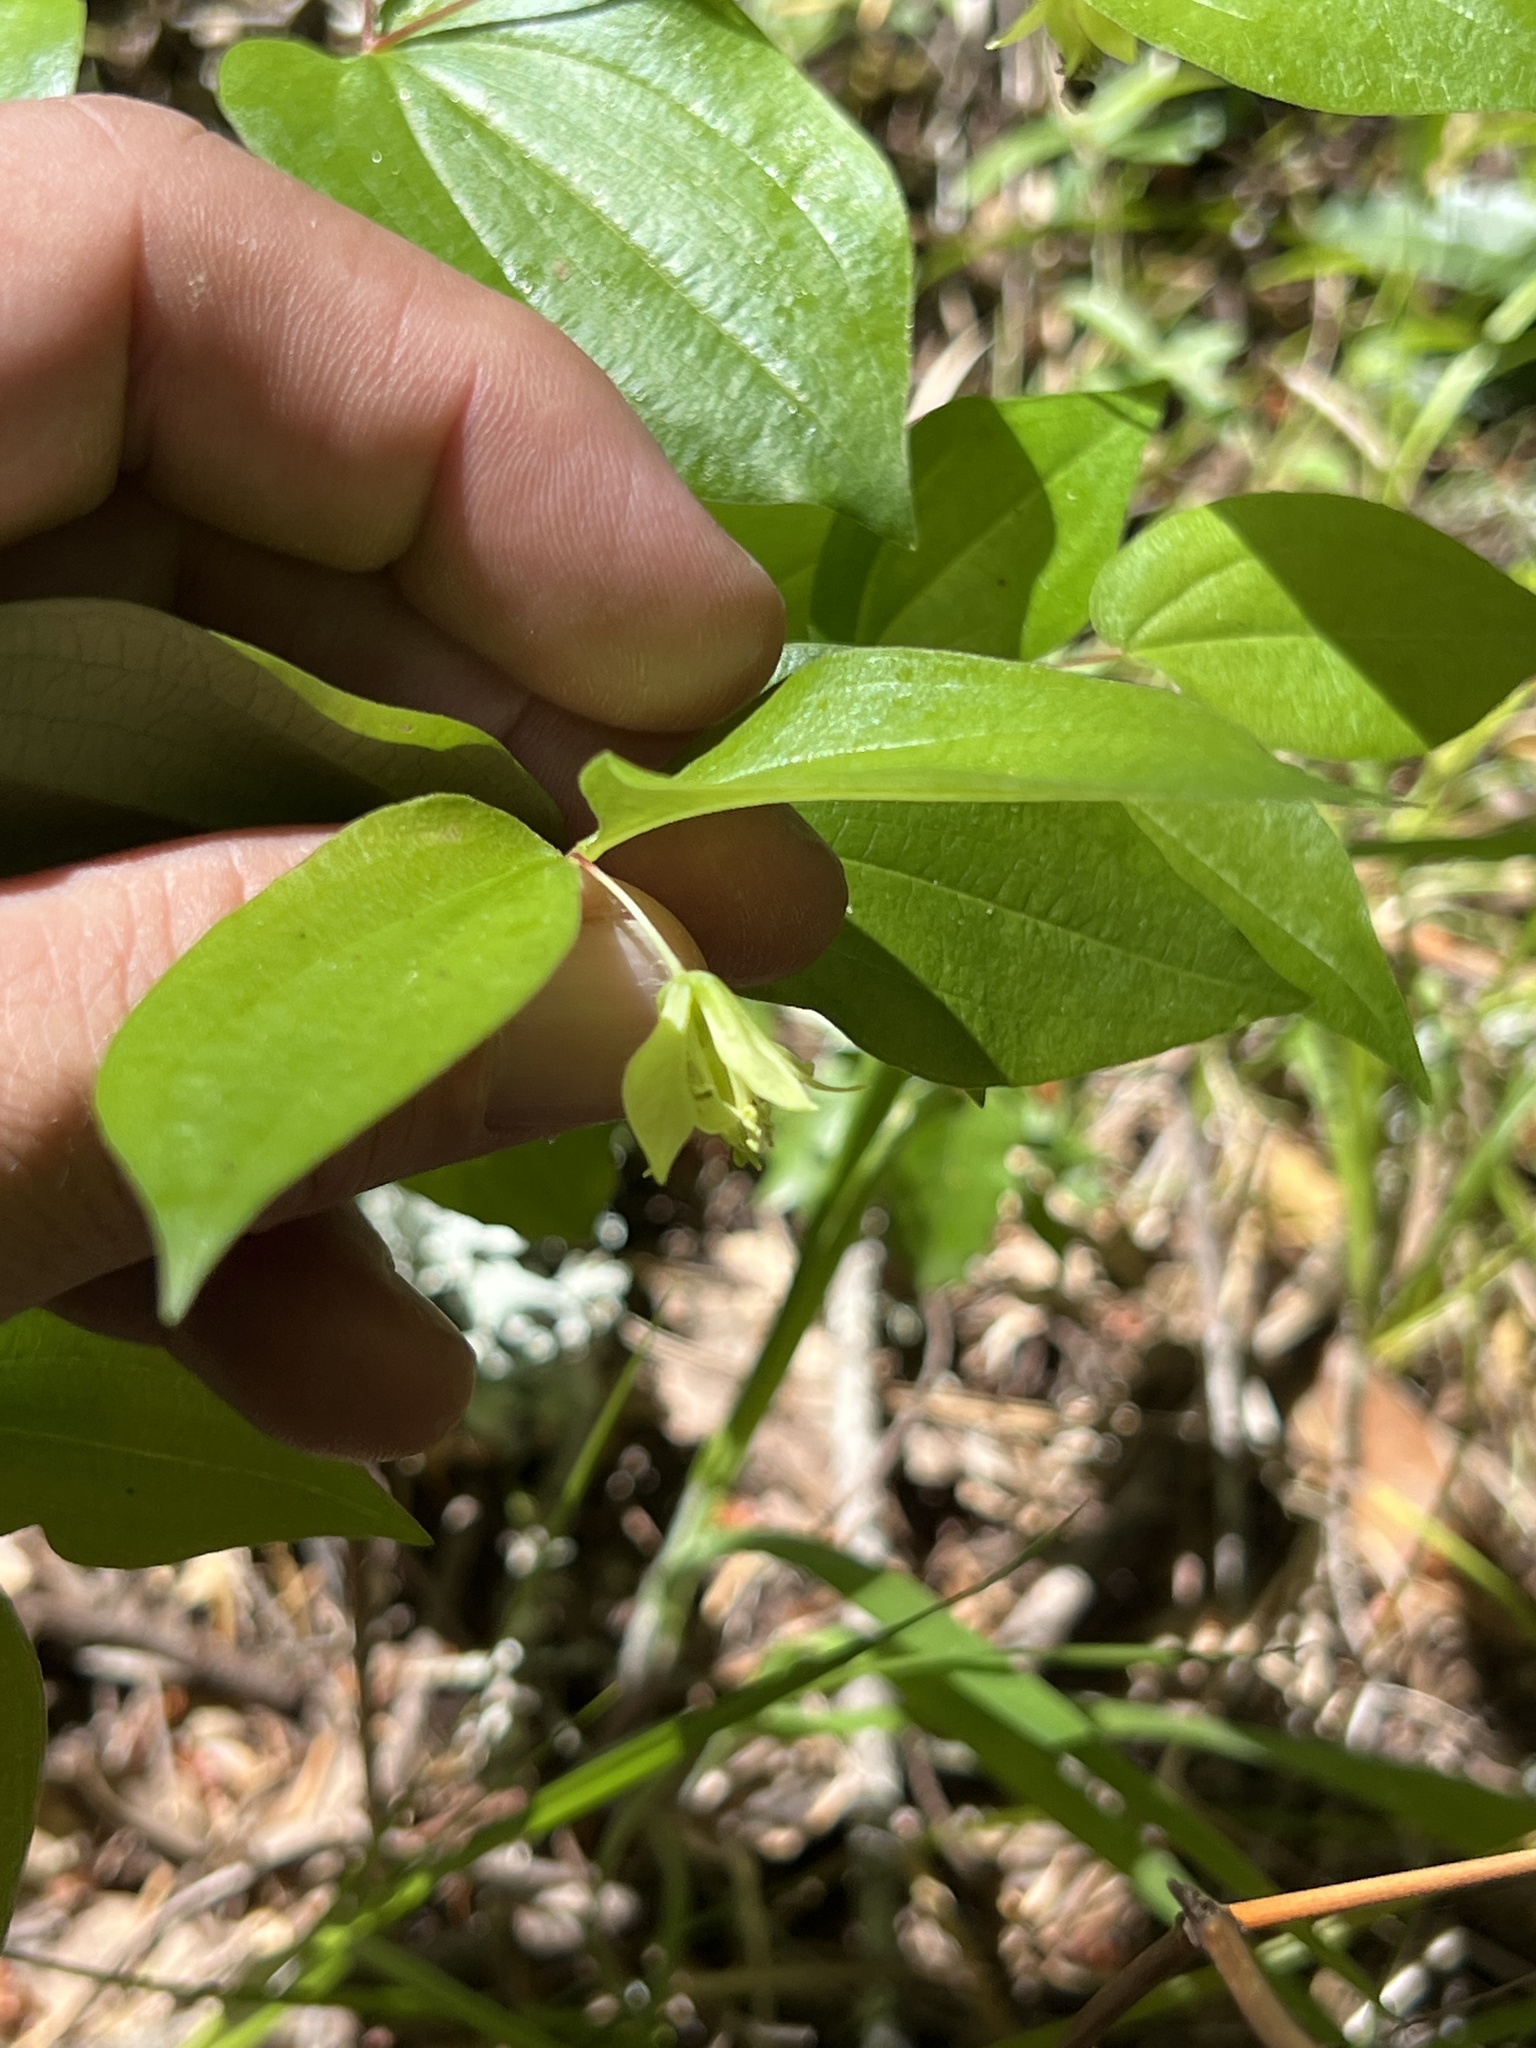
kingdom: Plantae
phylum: Tracheophyta
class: Liliopsida
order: Liliales
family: Liliaceae
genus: Prosartes
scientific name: Prosartes hookeri
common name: Fairy-bells
